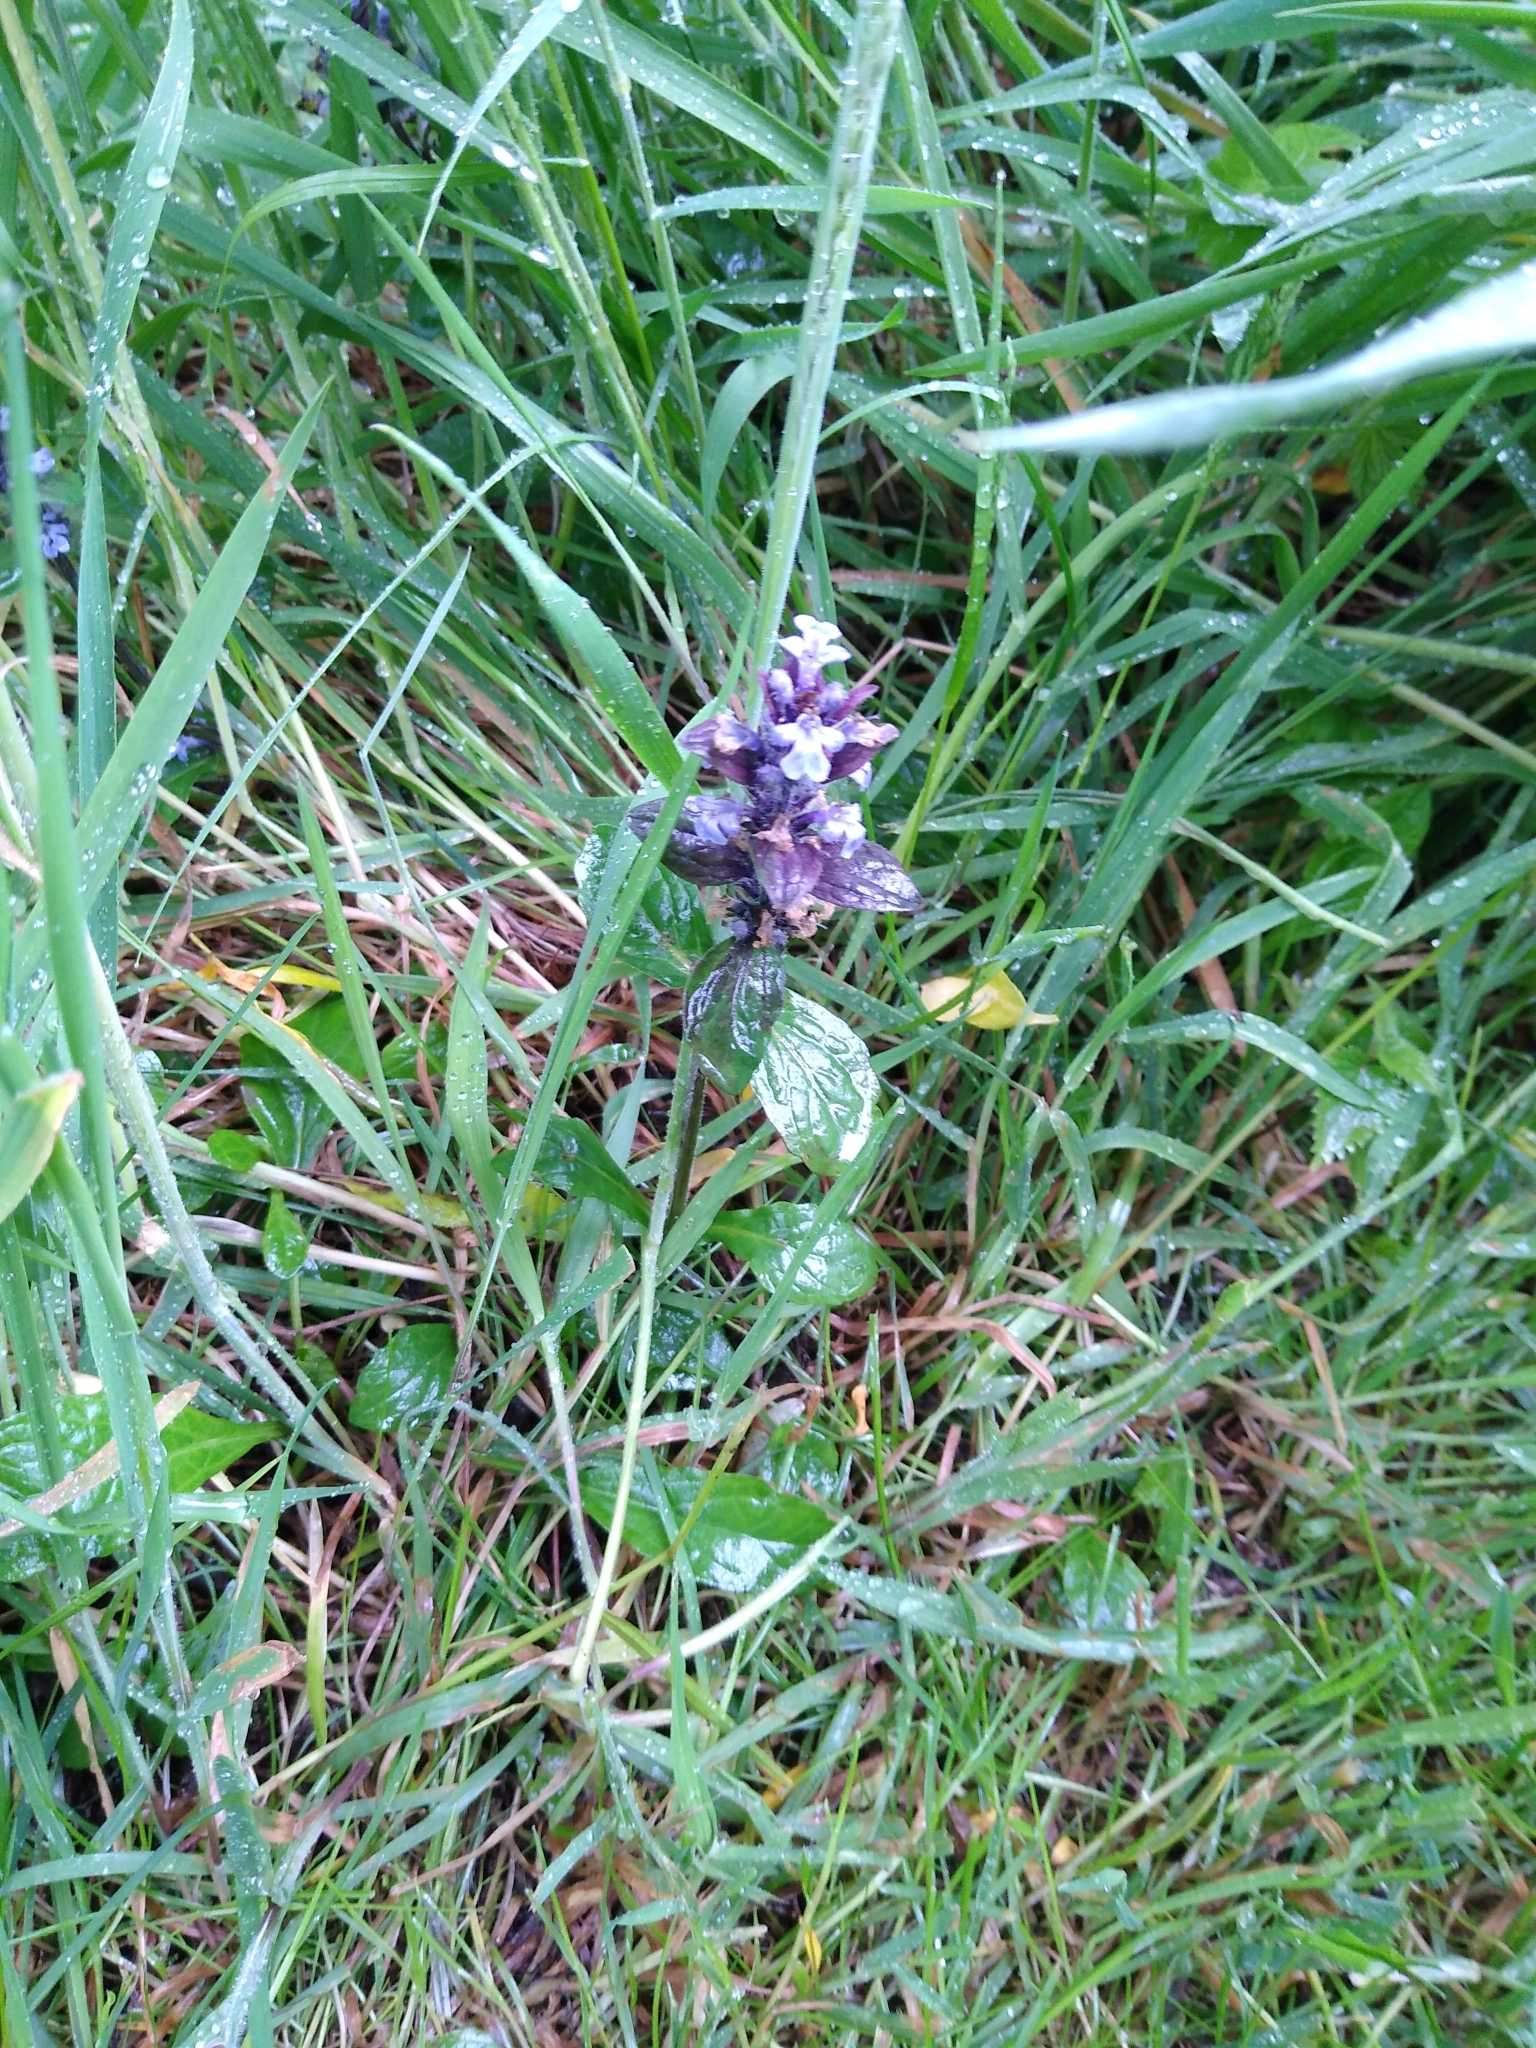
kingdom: Plantae
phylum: Tracheophyta
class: Magnoliopsida
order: Lamiales
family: Lamiaceae
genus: Ajuga
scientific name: Ajuga reptans
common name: Bugle
